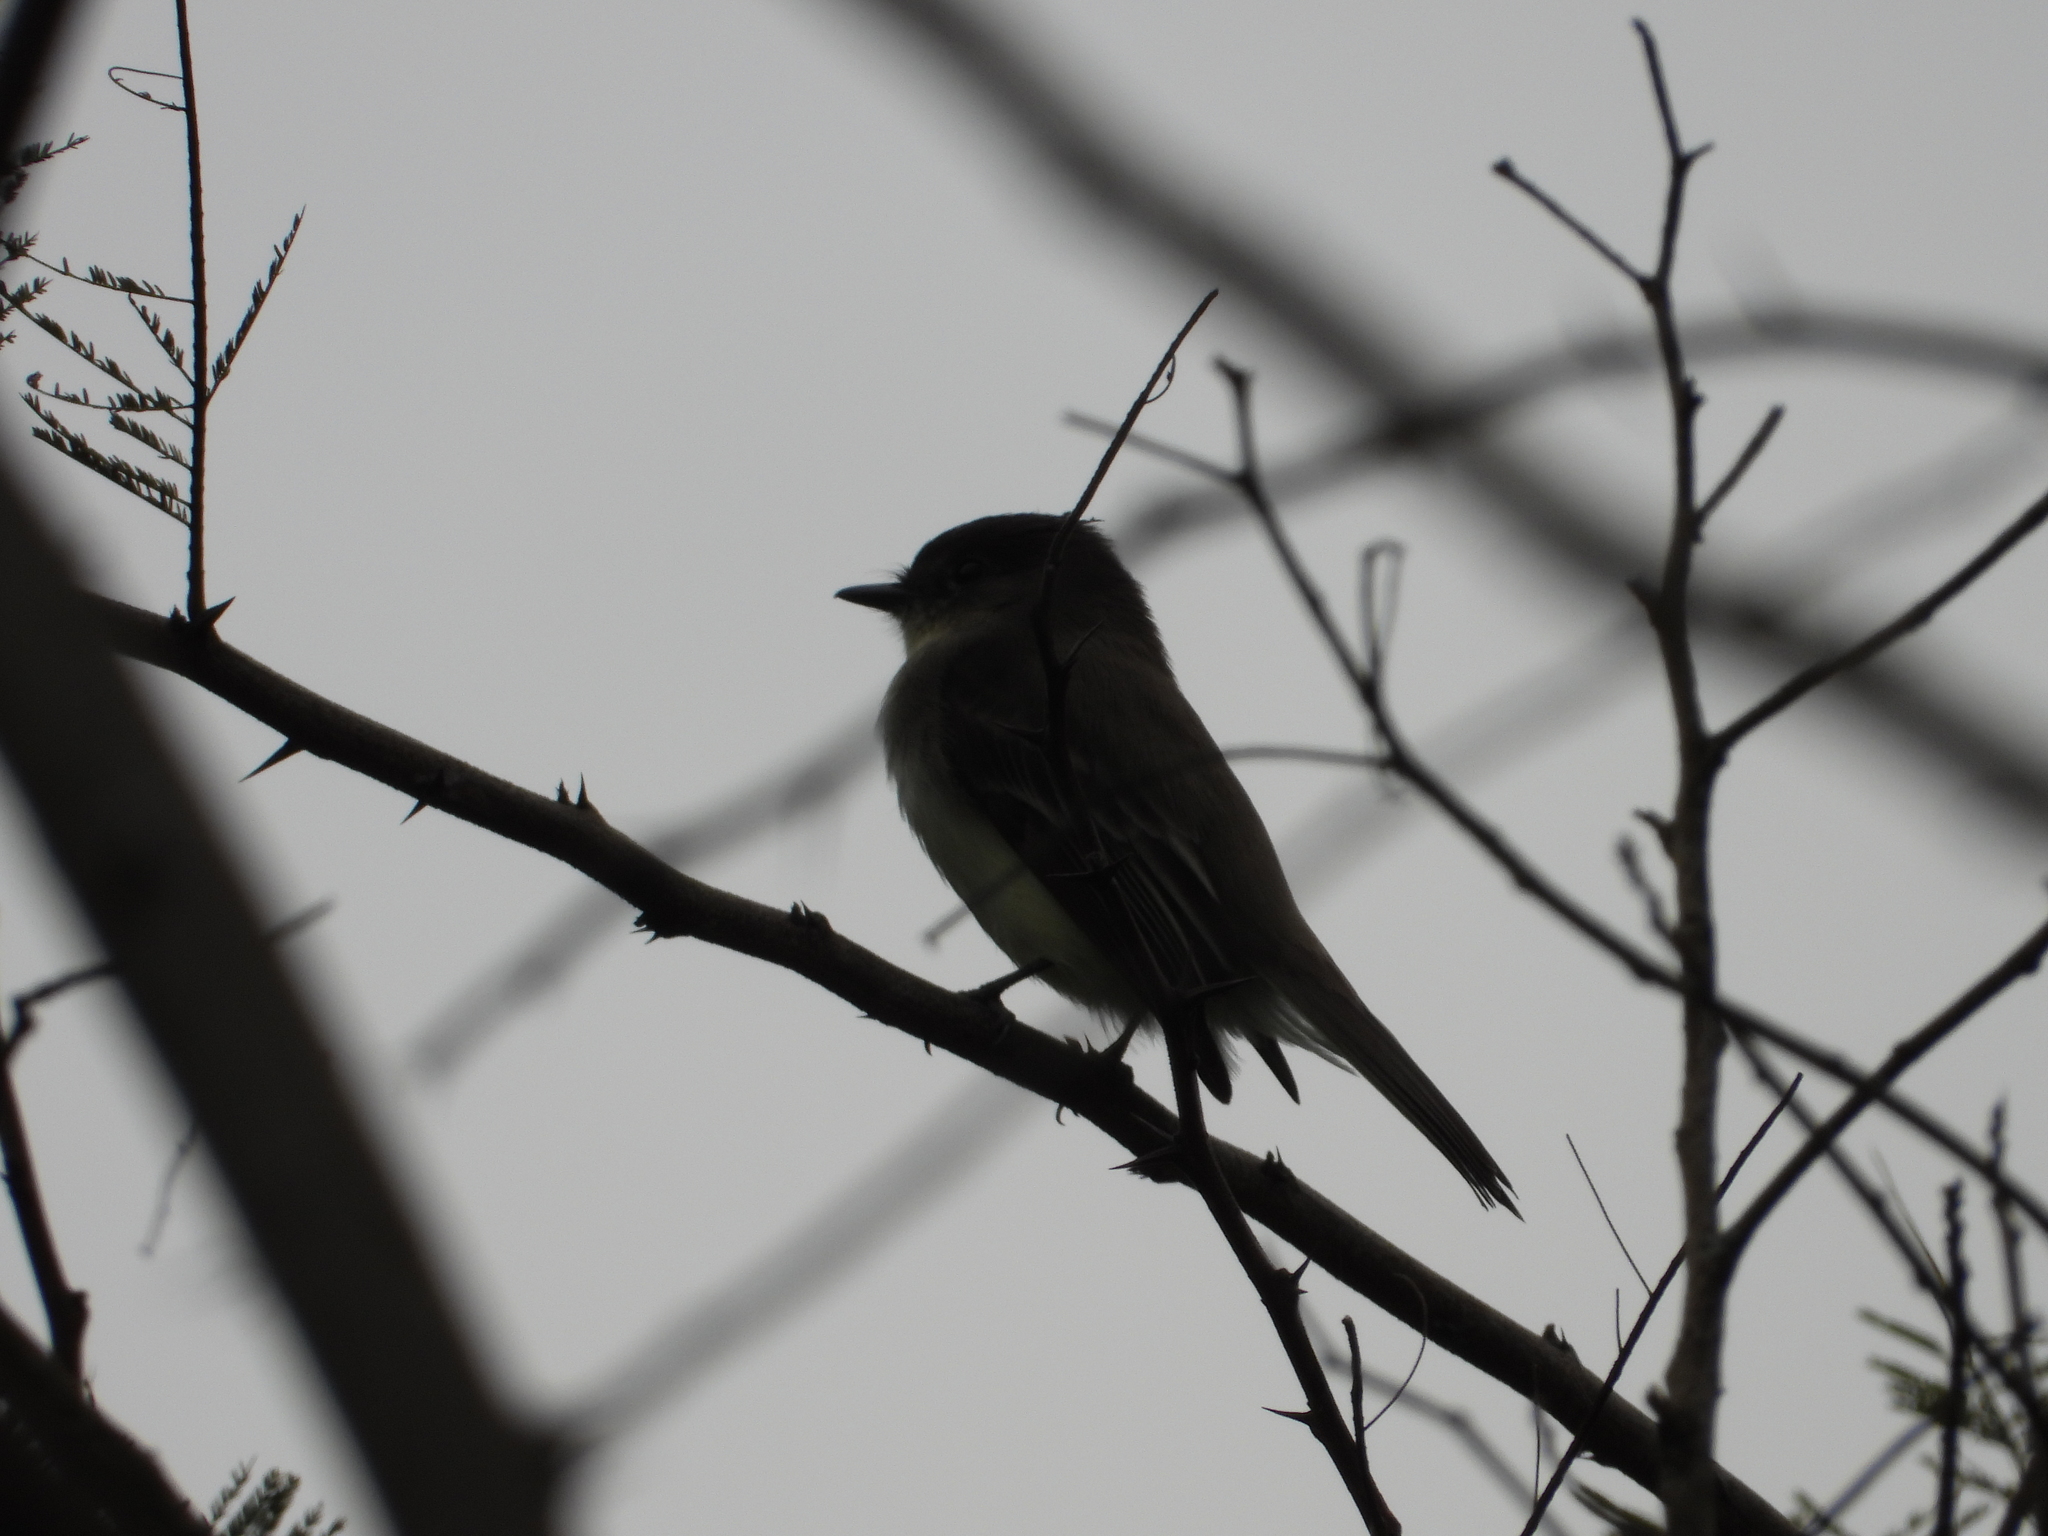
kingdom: Animalia
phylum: Chordata
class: Aves
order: Passeriformes
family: Tyrannidae
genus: Sayornis
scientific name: Sayornis phoebe
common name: Eastern phoebe
